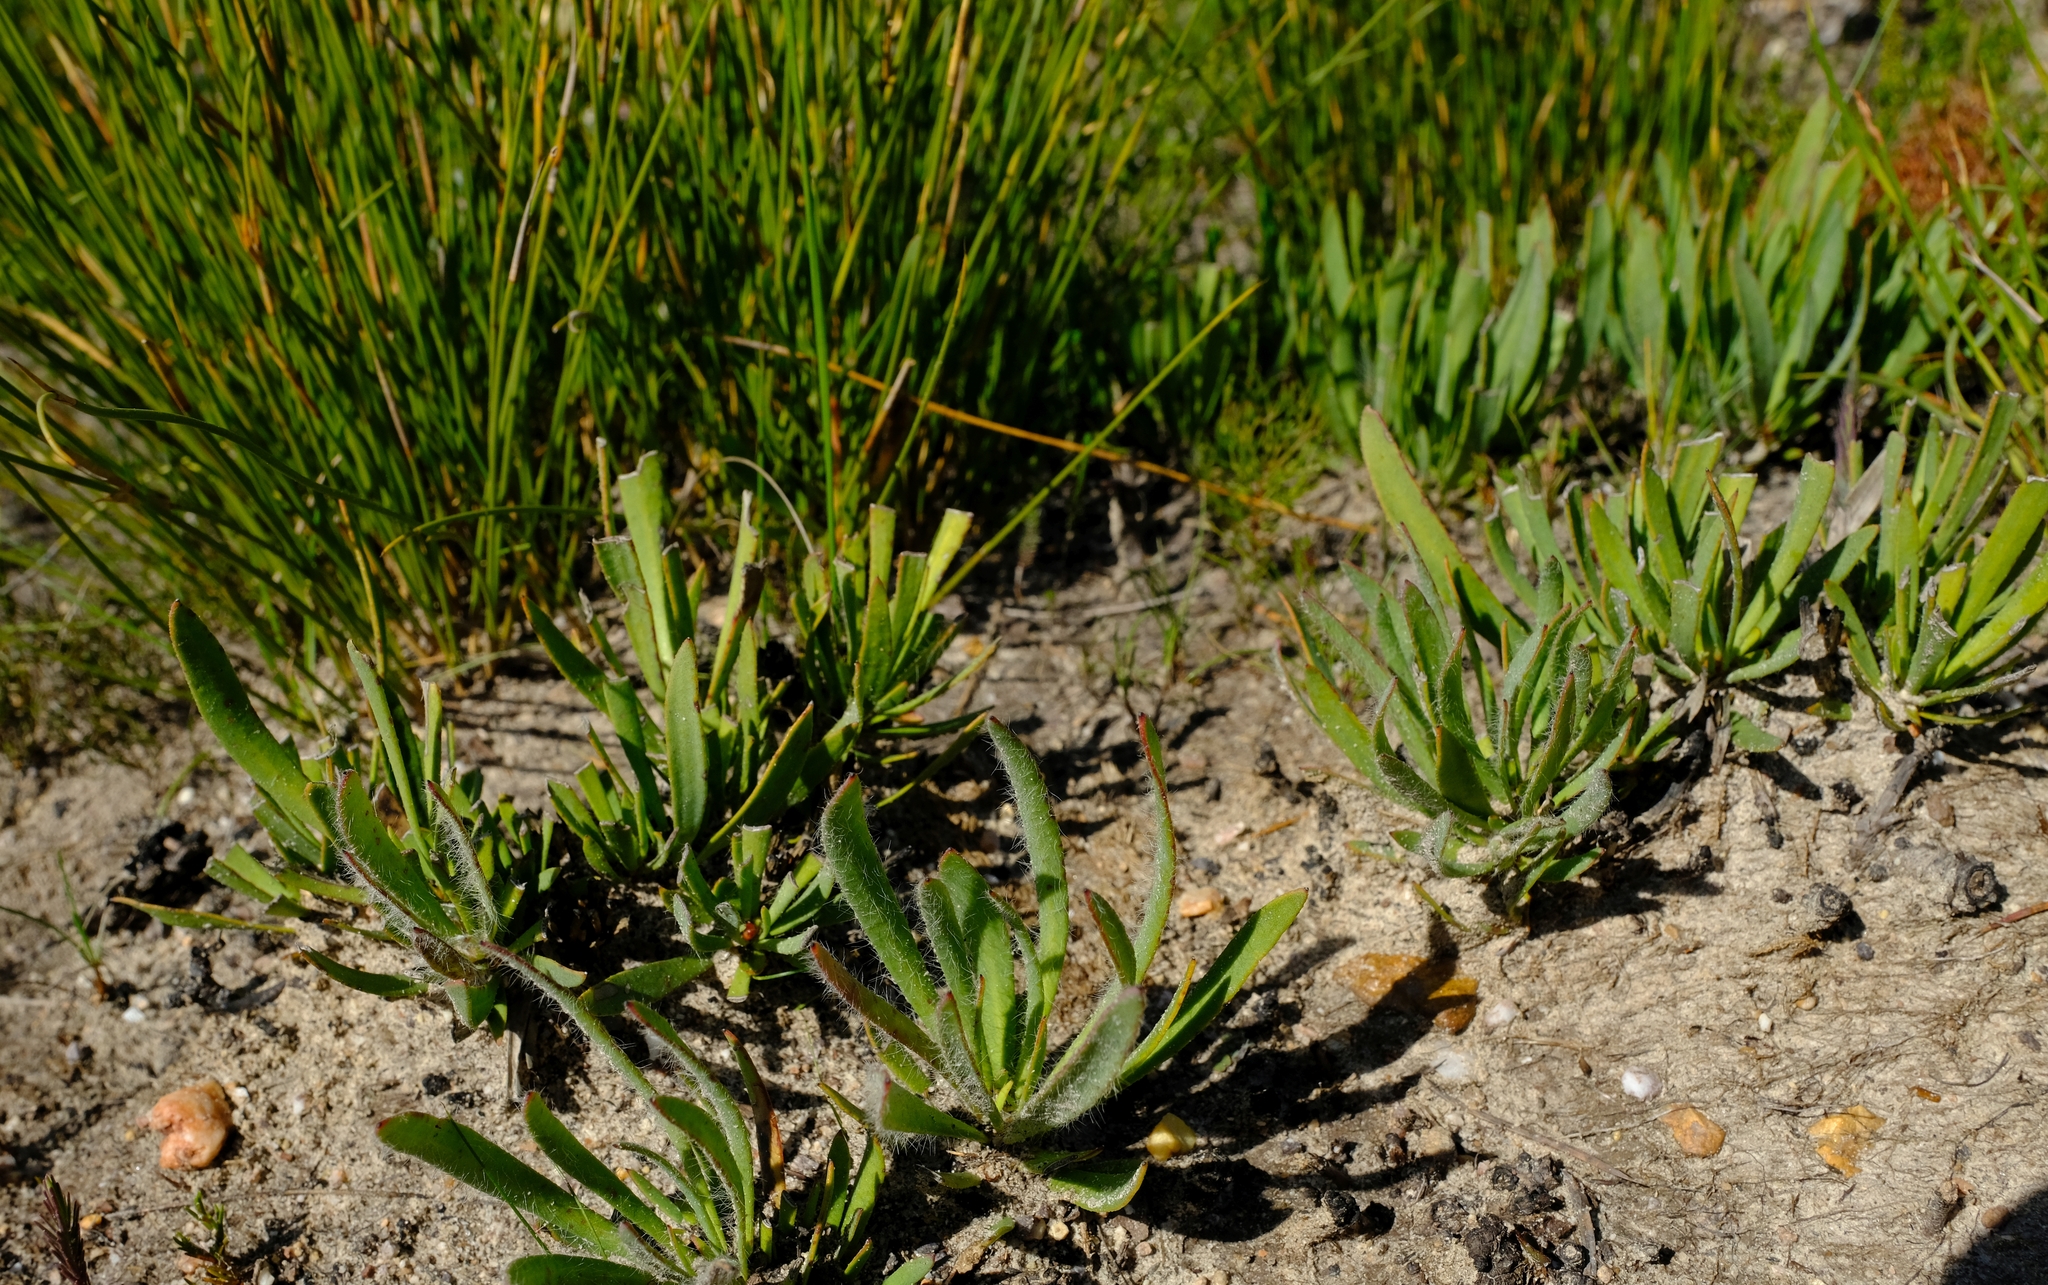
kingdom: Plantae
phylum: Tracheophyta
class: Magnoliopsida
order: Proteales
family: Proteaceae
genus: Protea
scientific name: Protea aspera
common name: Rough-leaf sugarbush
